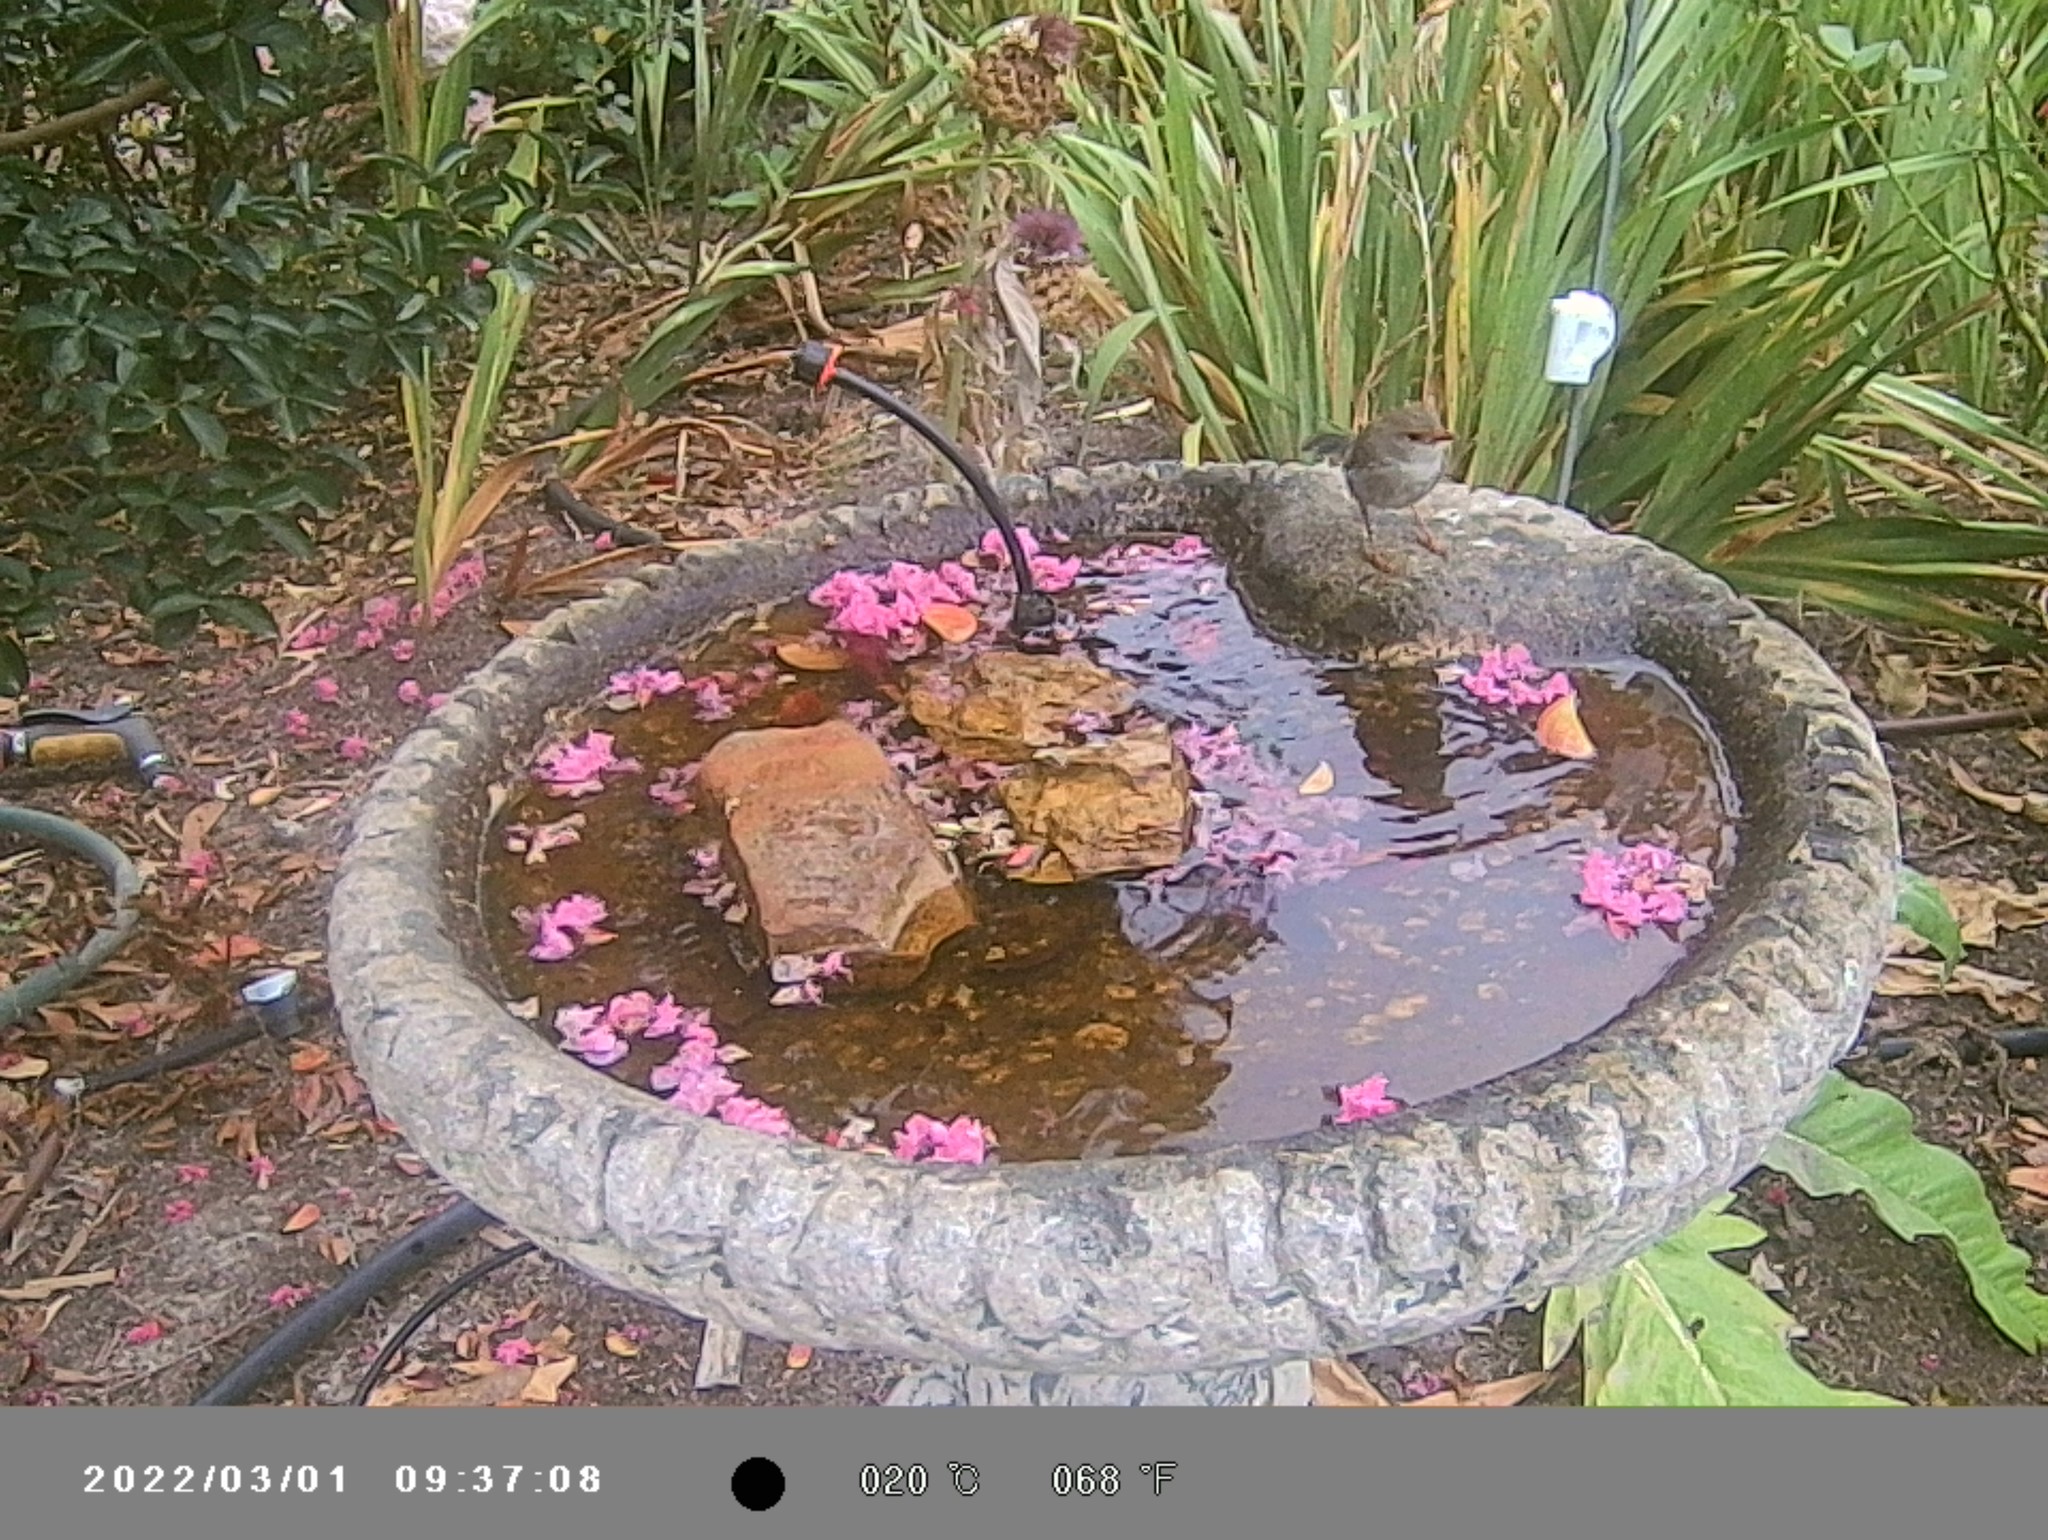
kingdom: Animalia
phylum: Chordata
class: Aves
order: Passeriformes
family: Maluridae
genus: Malurus
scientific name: Malurus cyaneus
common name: Superb fairywren
